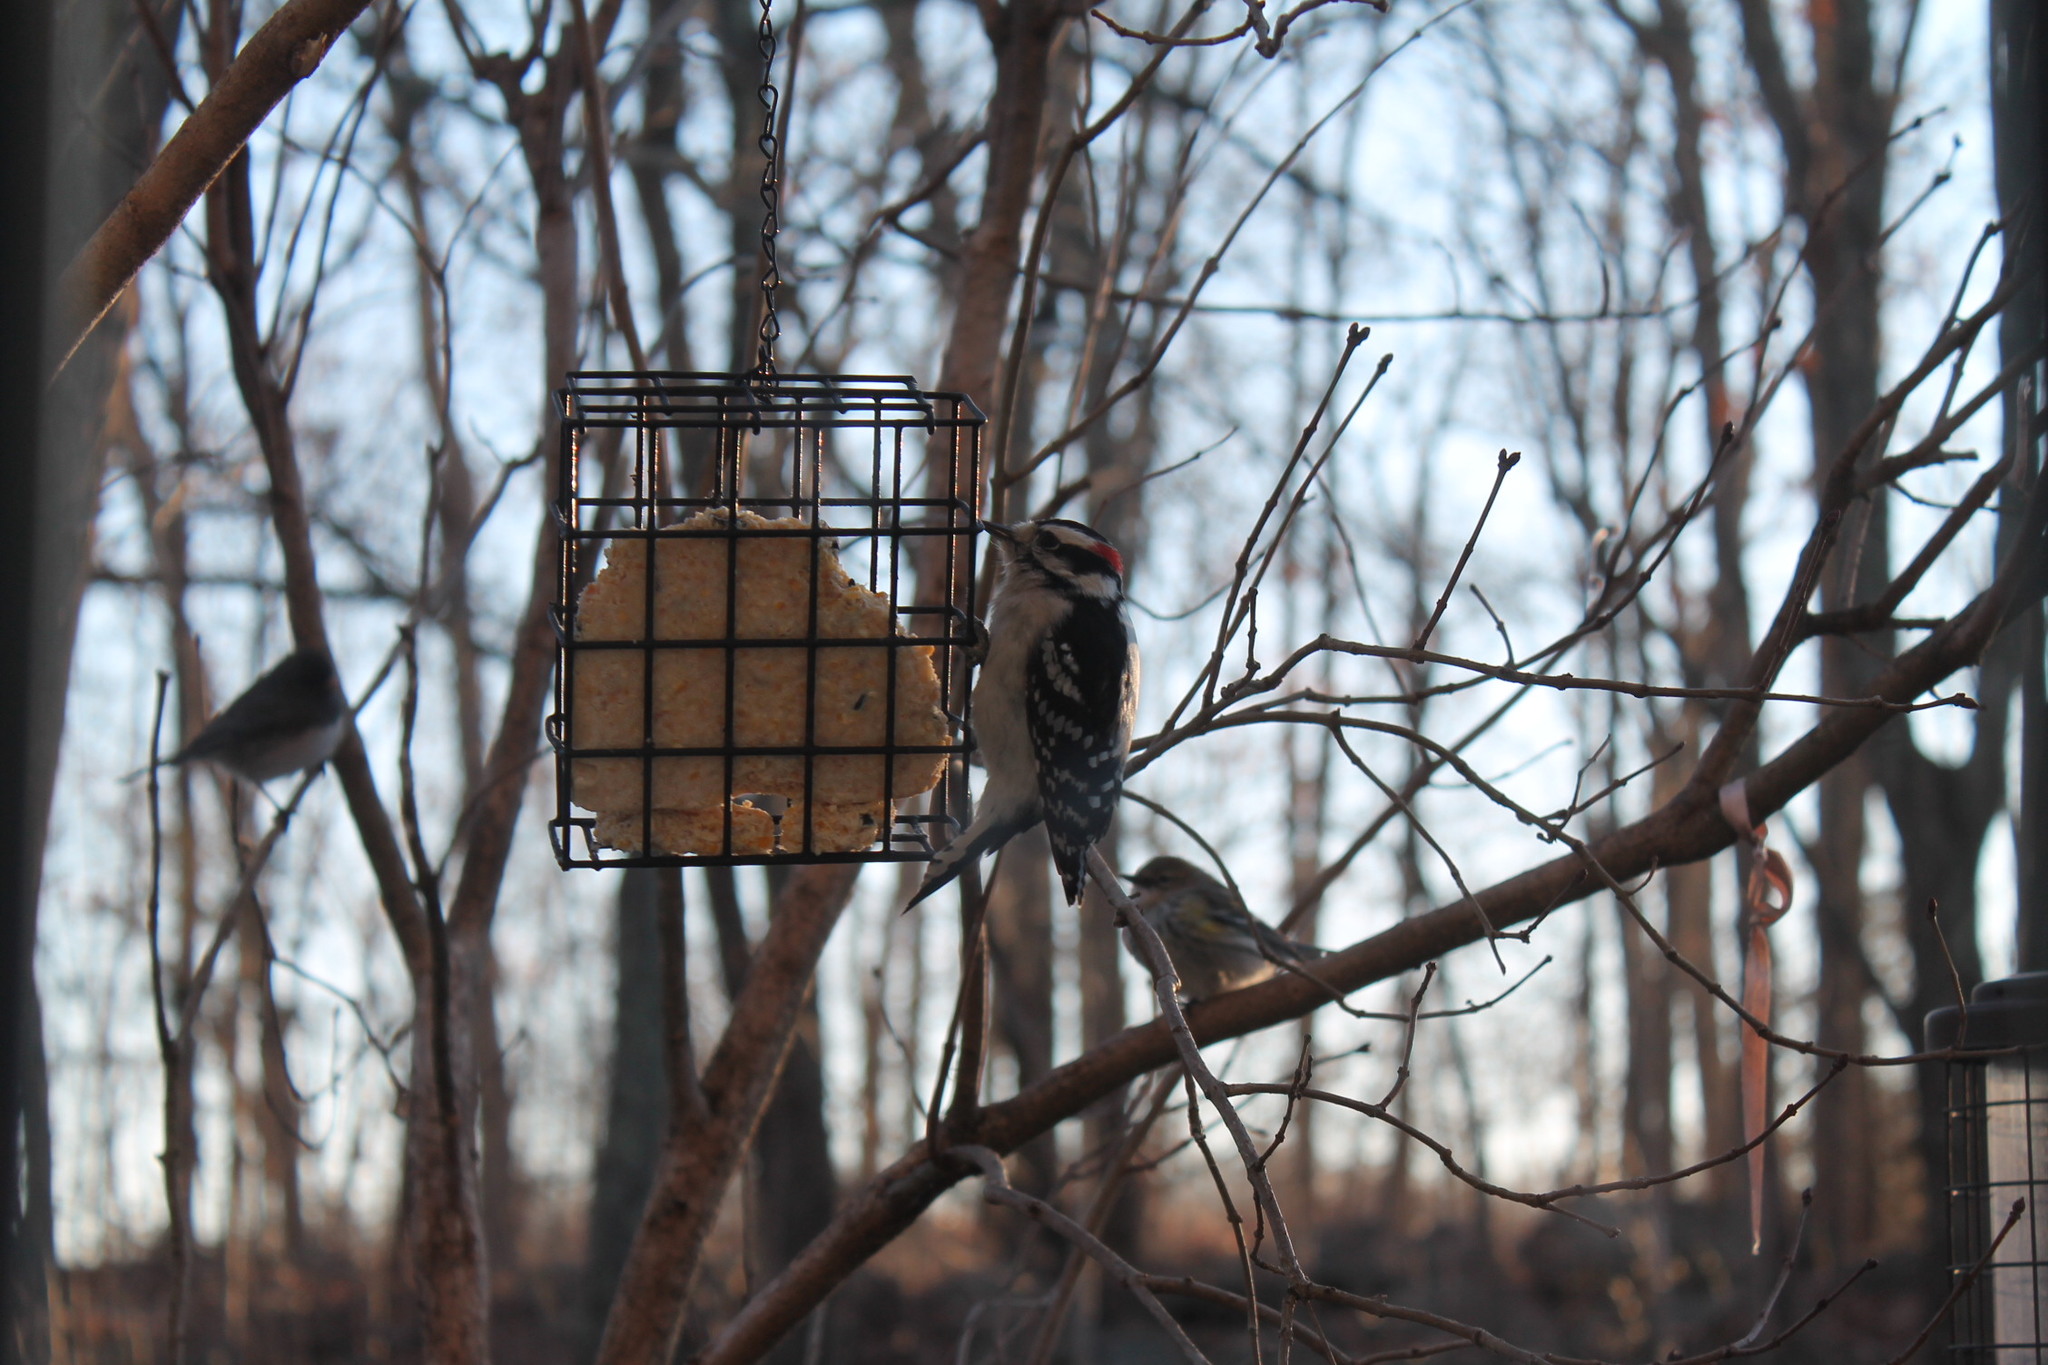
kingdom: Animalia
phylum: Chordata
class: Aves
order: Piciformes
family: Picidae
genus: Dryobates
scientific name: Dryobates pubescens
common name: Downy woodpecker
